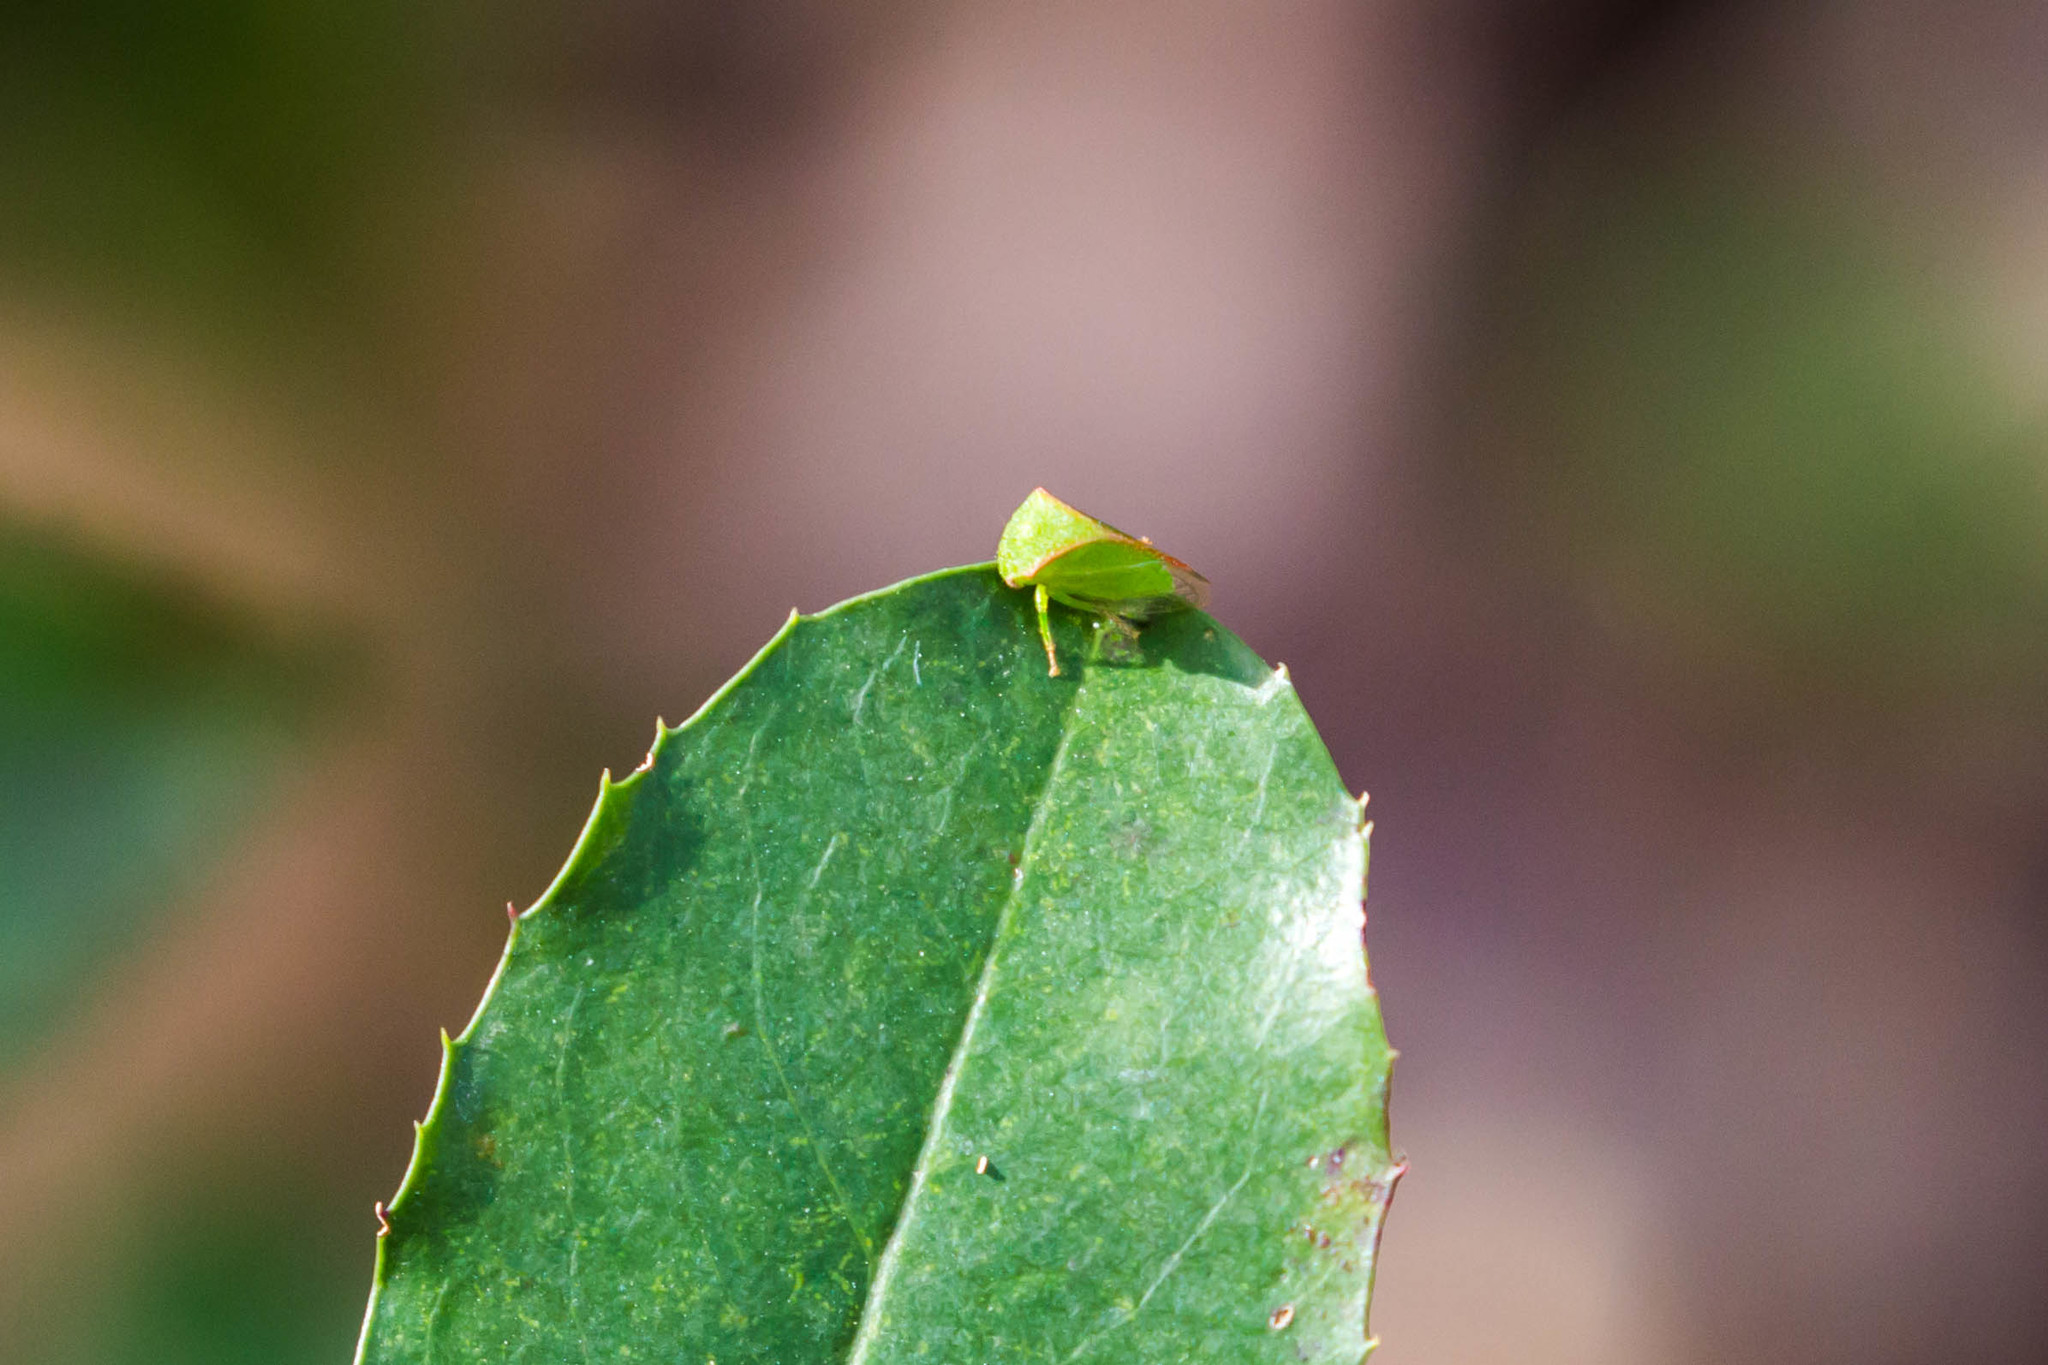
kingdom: Animalia
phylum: Arthropoda
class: Insecta
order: Hemiptera
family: Membracidae
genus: Spissistilus
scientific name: Spissistilus festina
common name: Membracid bug
